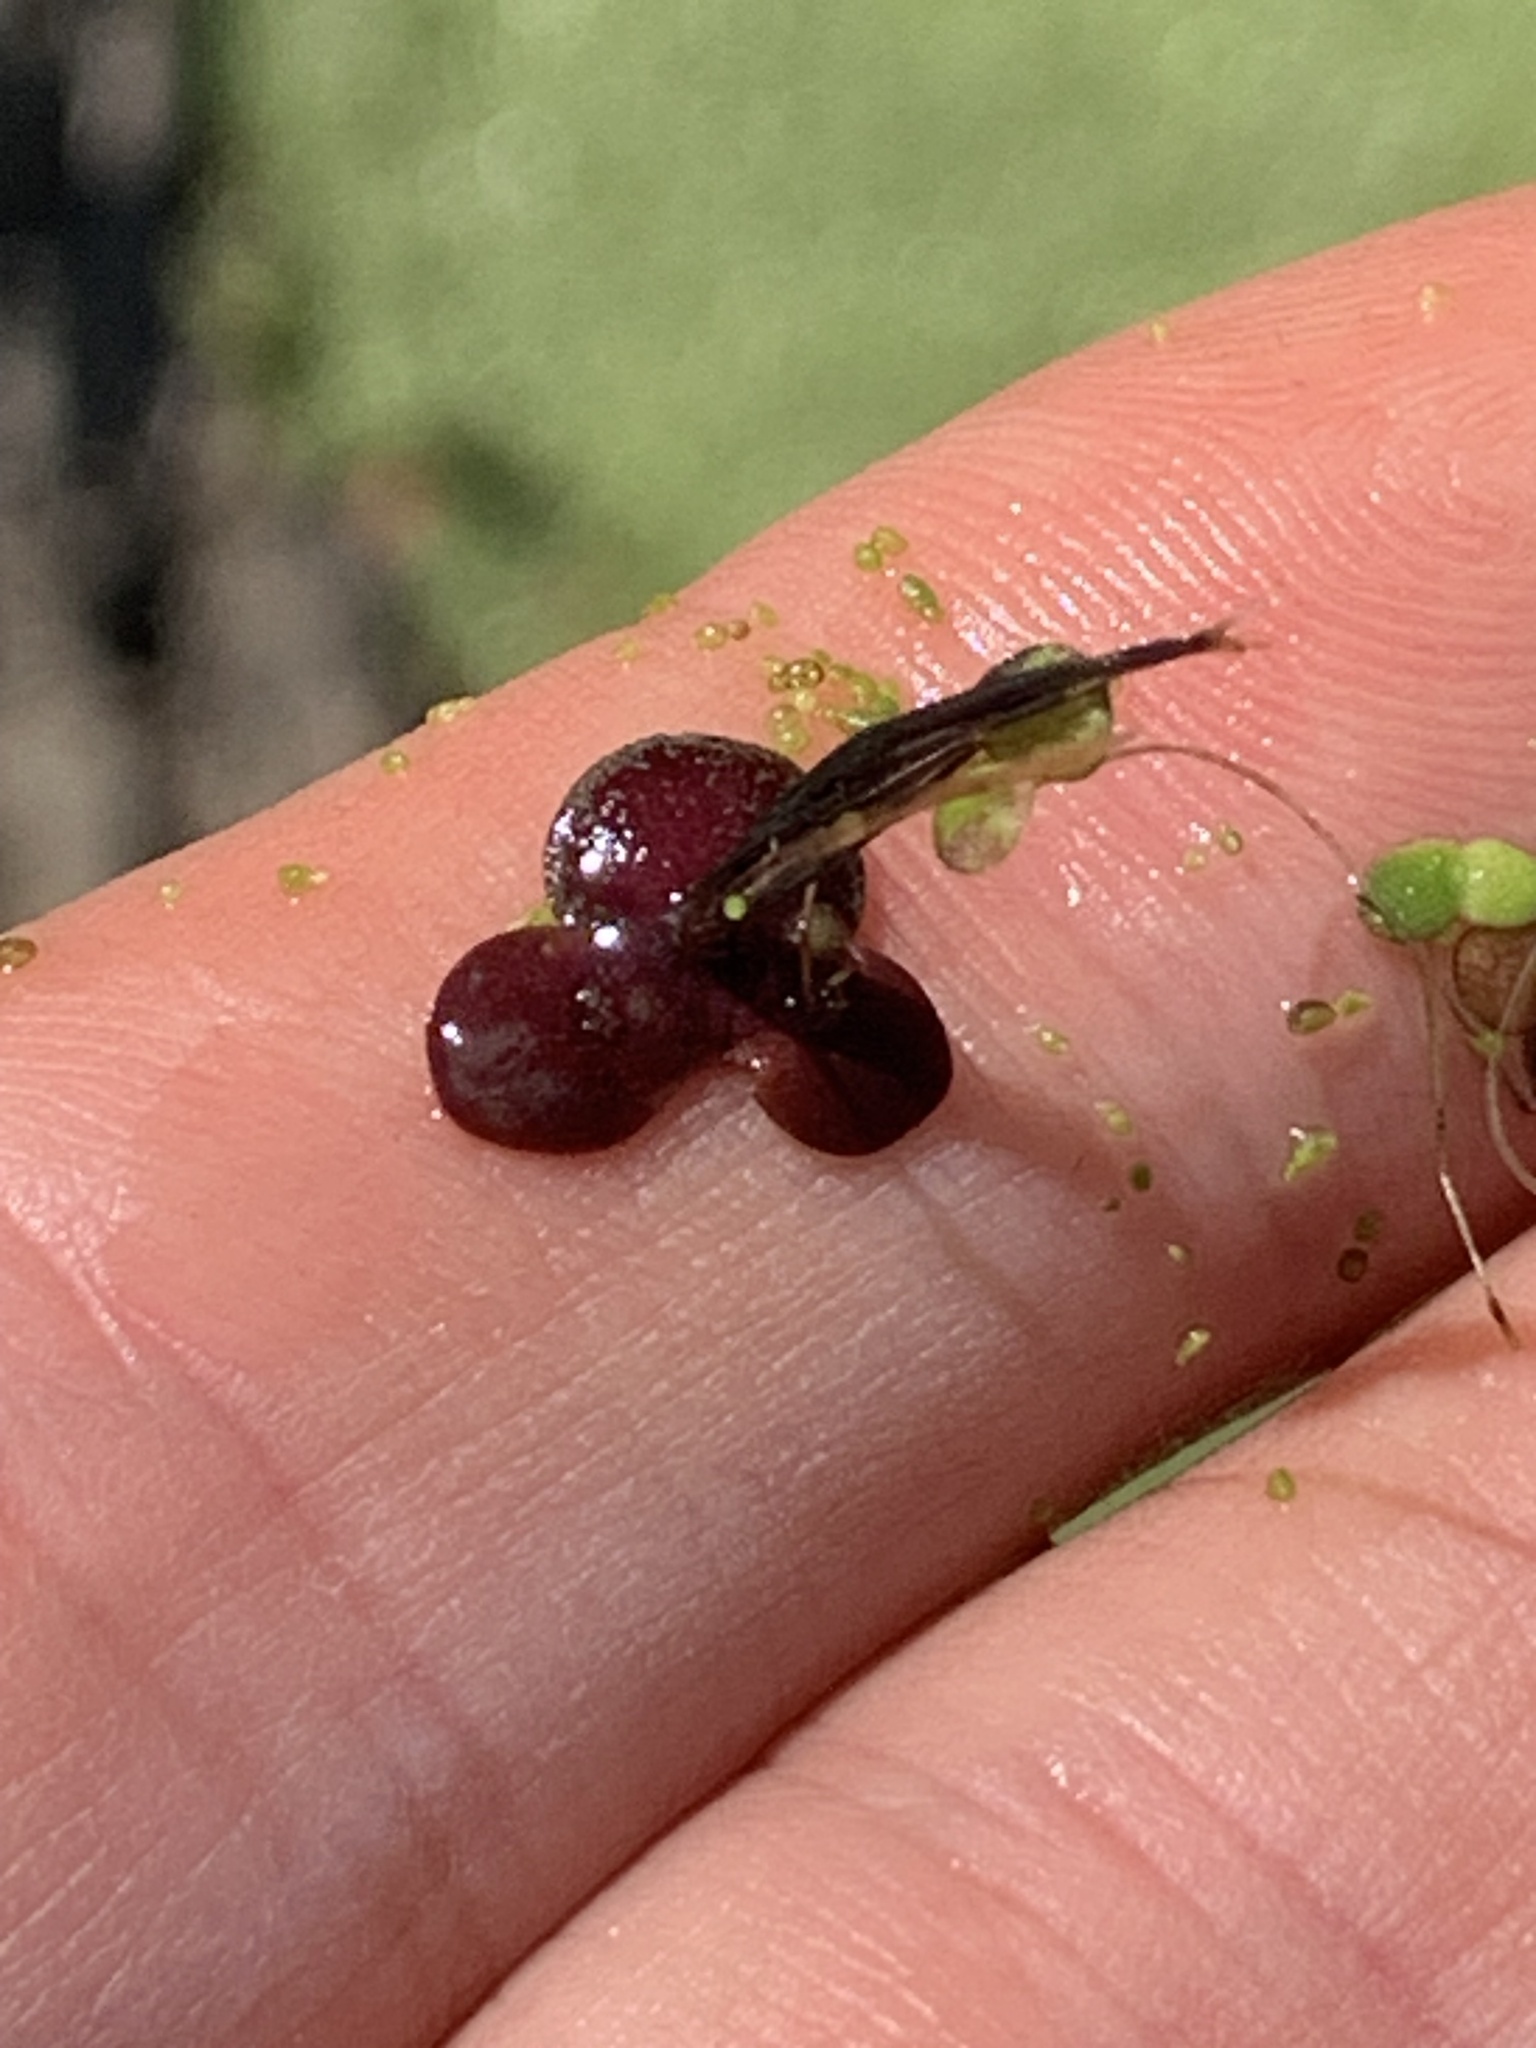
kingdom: Plantae
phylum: Tracheophyta
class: Liliopsida
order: Alismatales
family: Araceae
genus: Spirodela
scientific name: Spirodela polyrhiza
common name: Great duckweed
